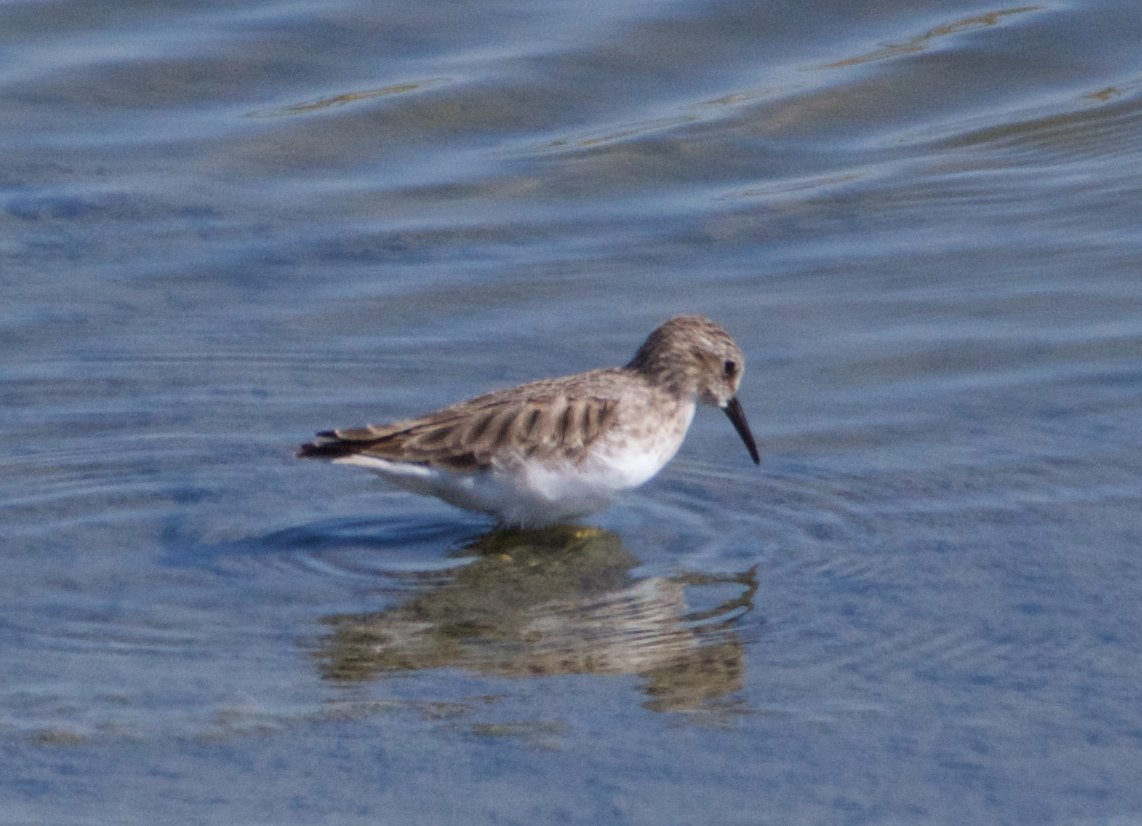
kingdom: Animalia
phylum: Chordata
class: Aves
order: Charadriiformes
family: Scolopacidae
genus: Calidris
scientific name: Calidris minutilla
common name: Least sandpiper
